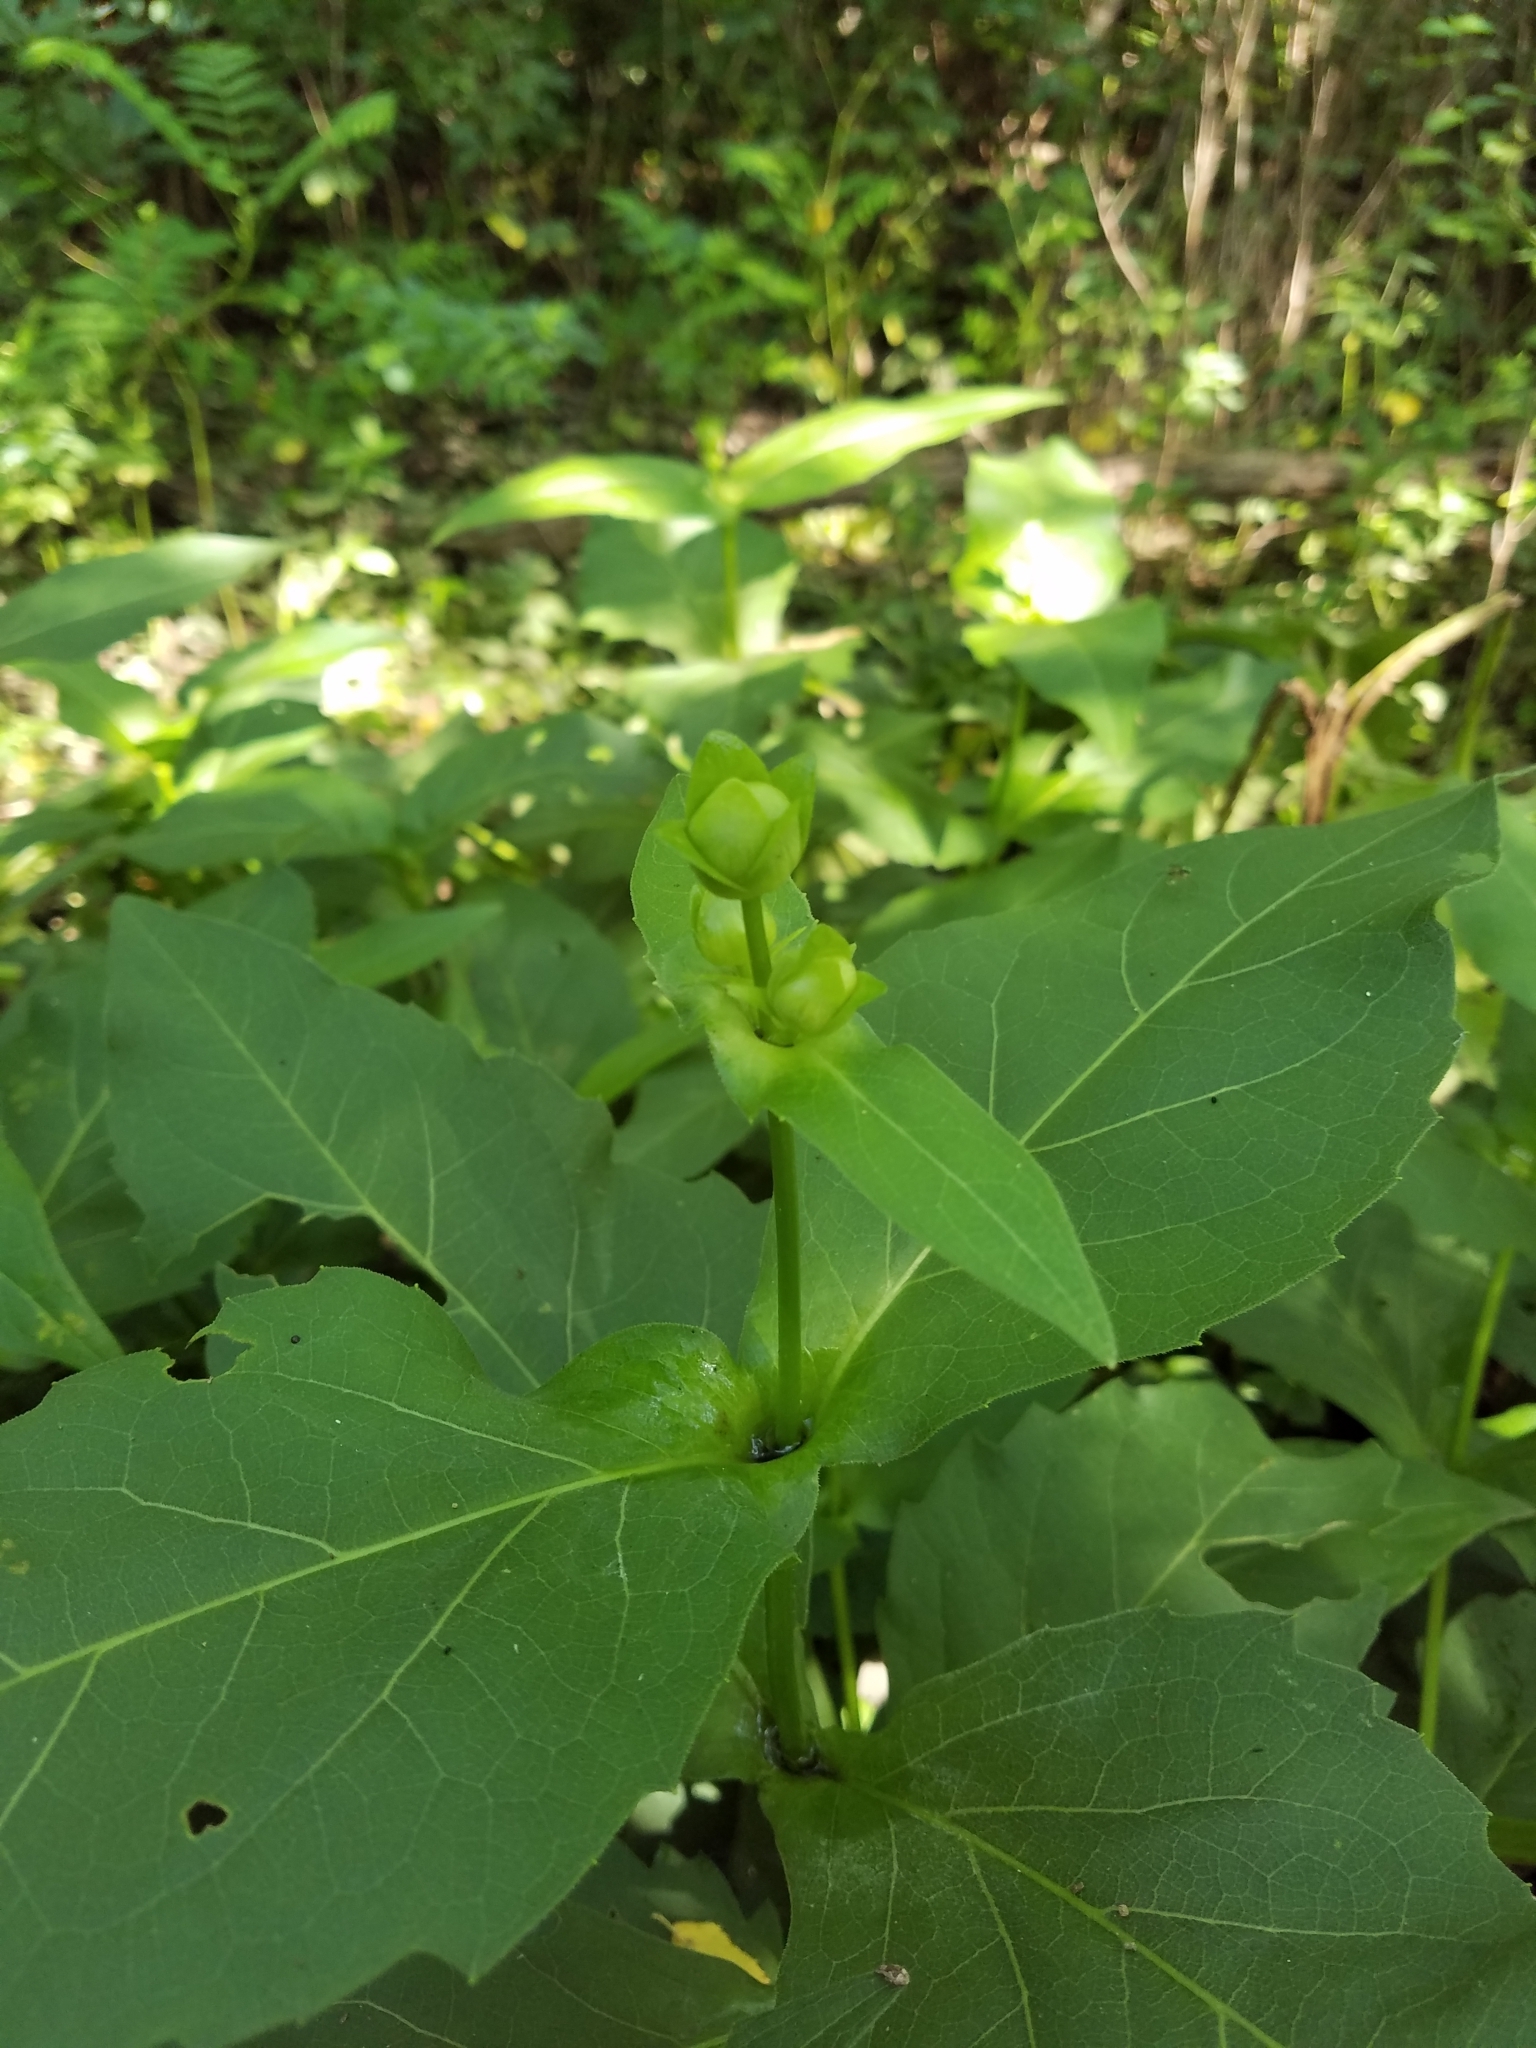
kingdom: Plantae
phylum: Tracheophyta
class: Magnoliopsida
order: Asterales
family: Asteraceae
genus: Silphium
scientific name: Silphium perfoliatum
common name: Cup-plant
